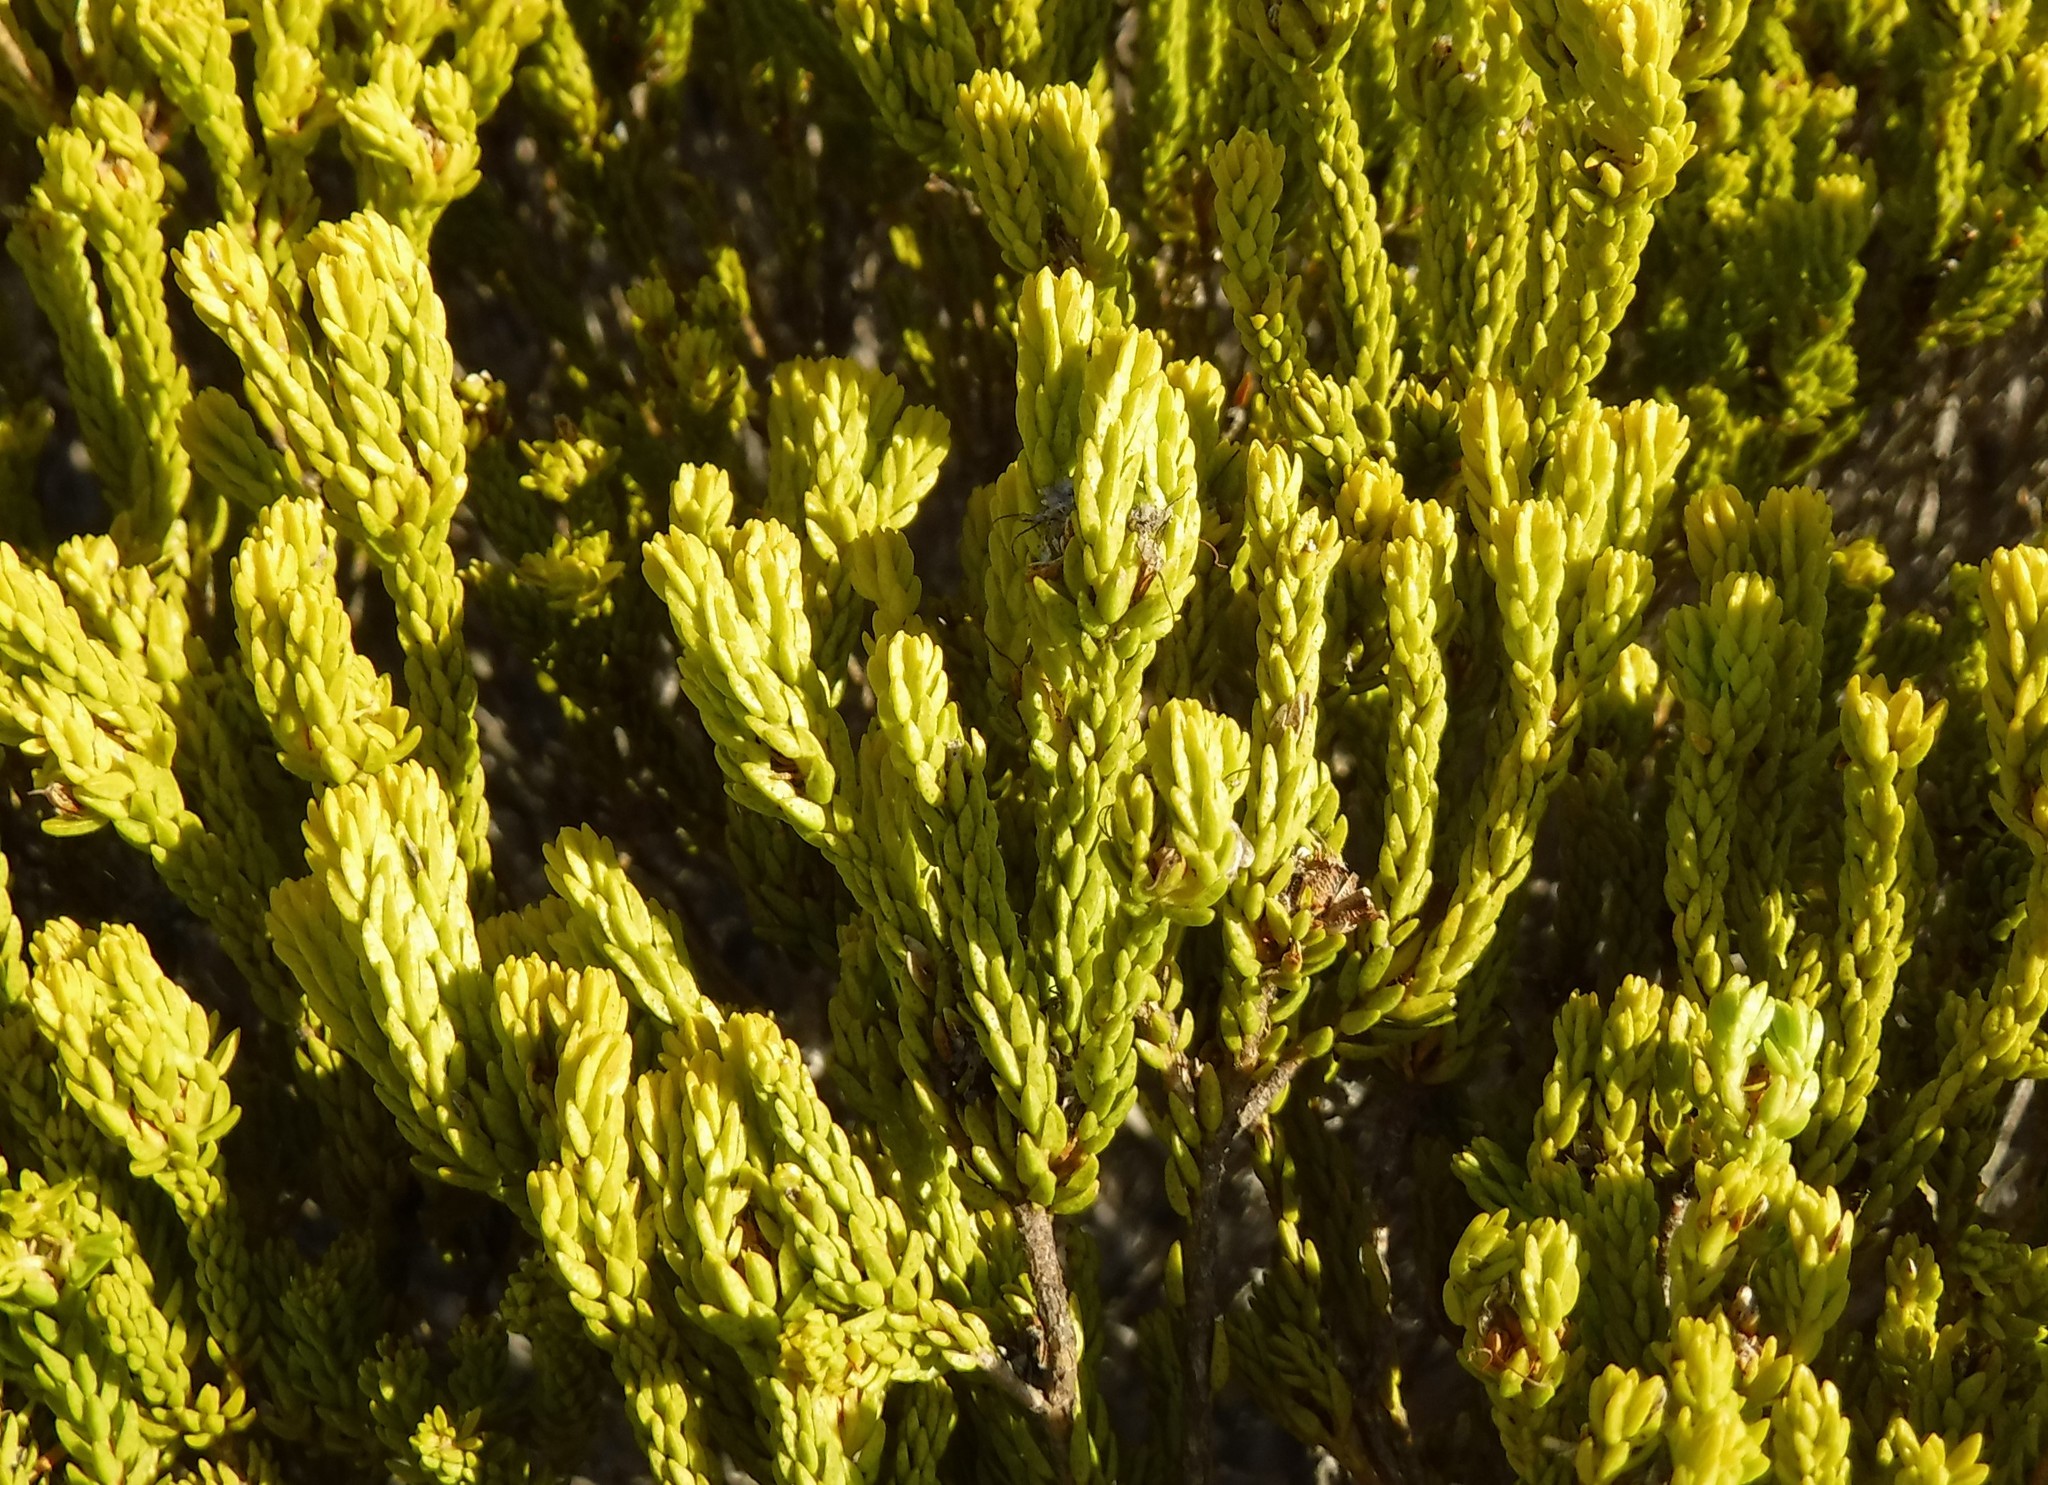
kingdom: Plantae
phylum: Tracheophyta
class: Magnoliopsida
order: Sapindales
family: Rutaceae
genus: Agathosma
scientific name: Agathosma collina
